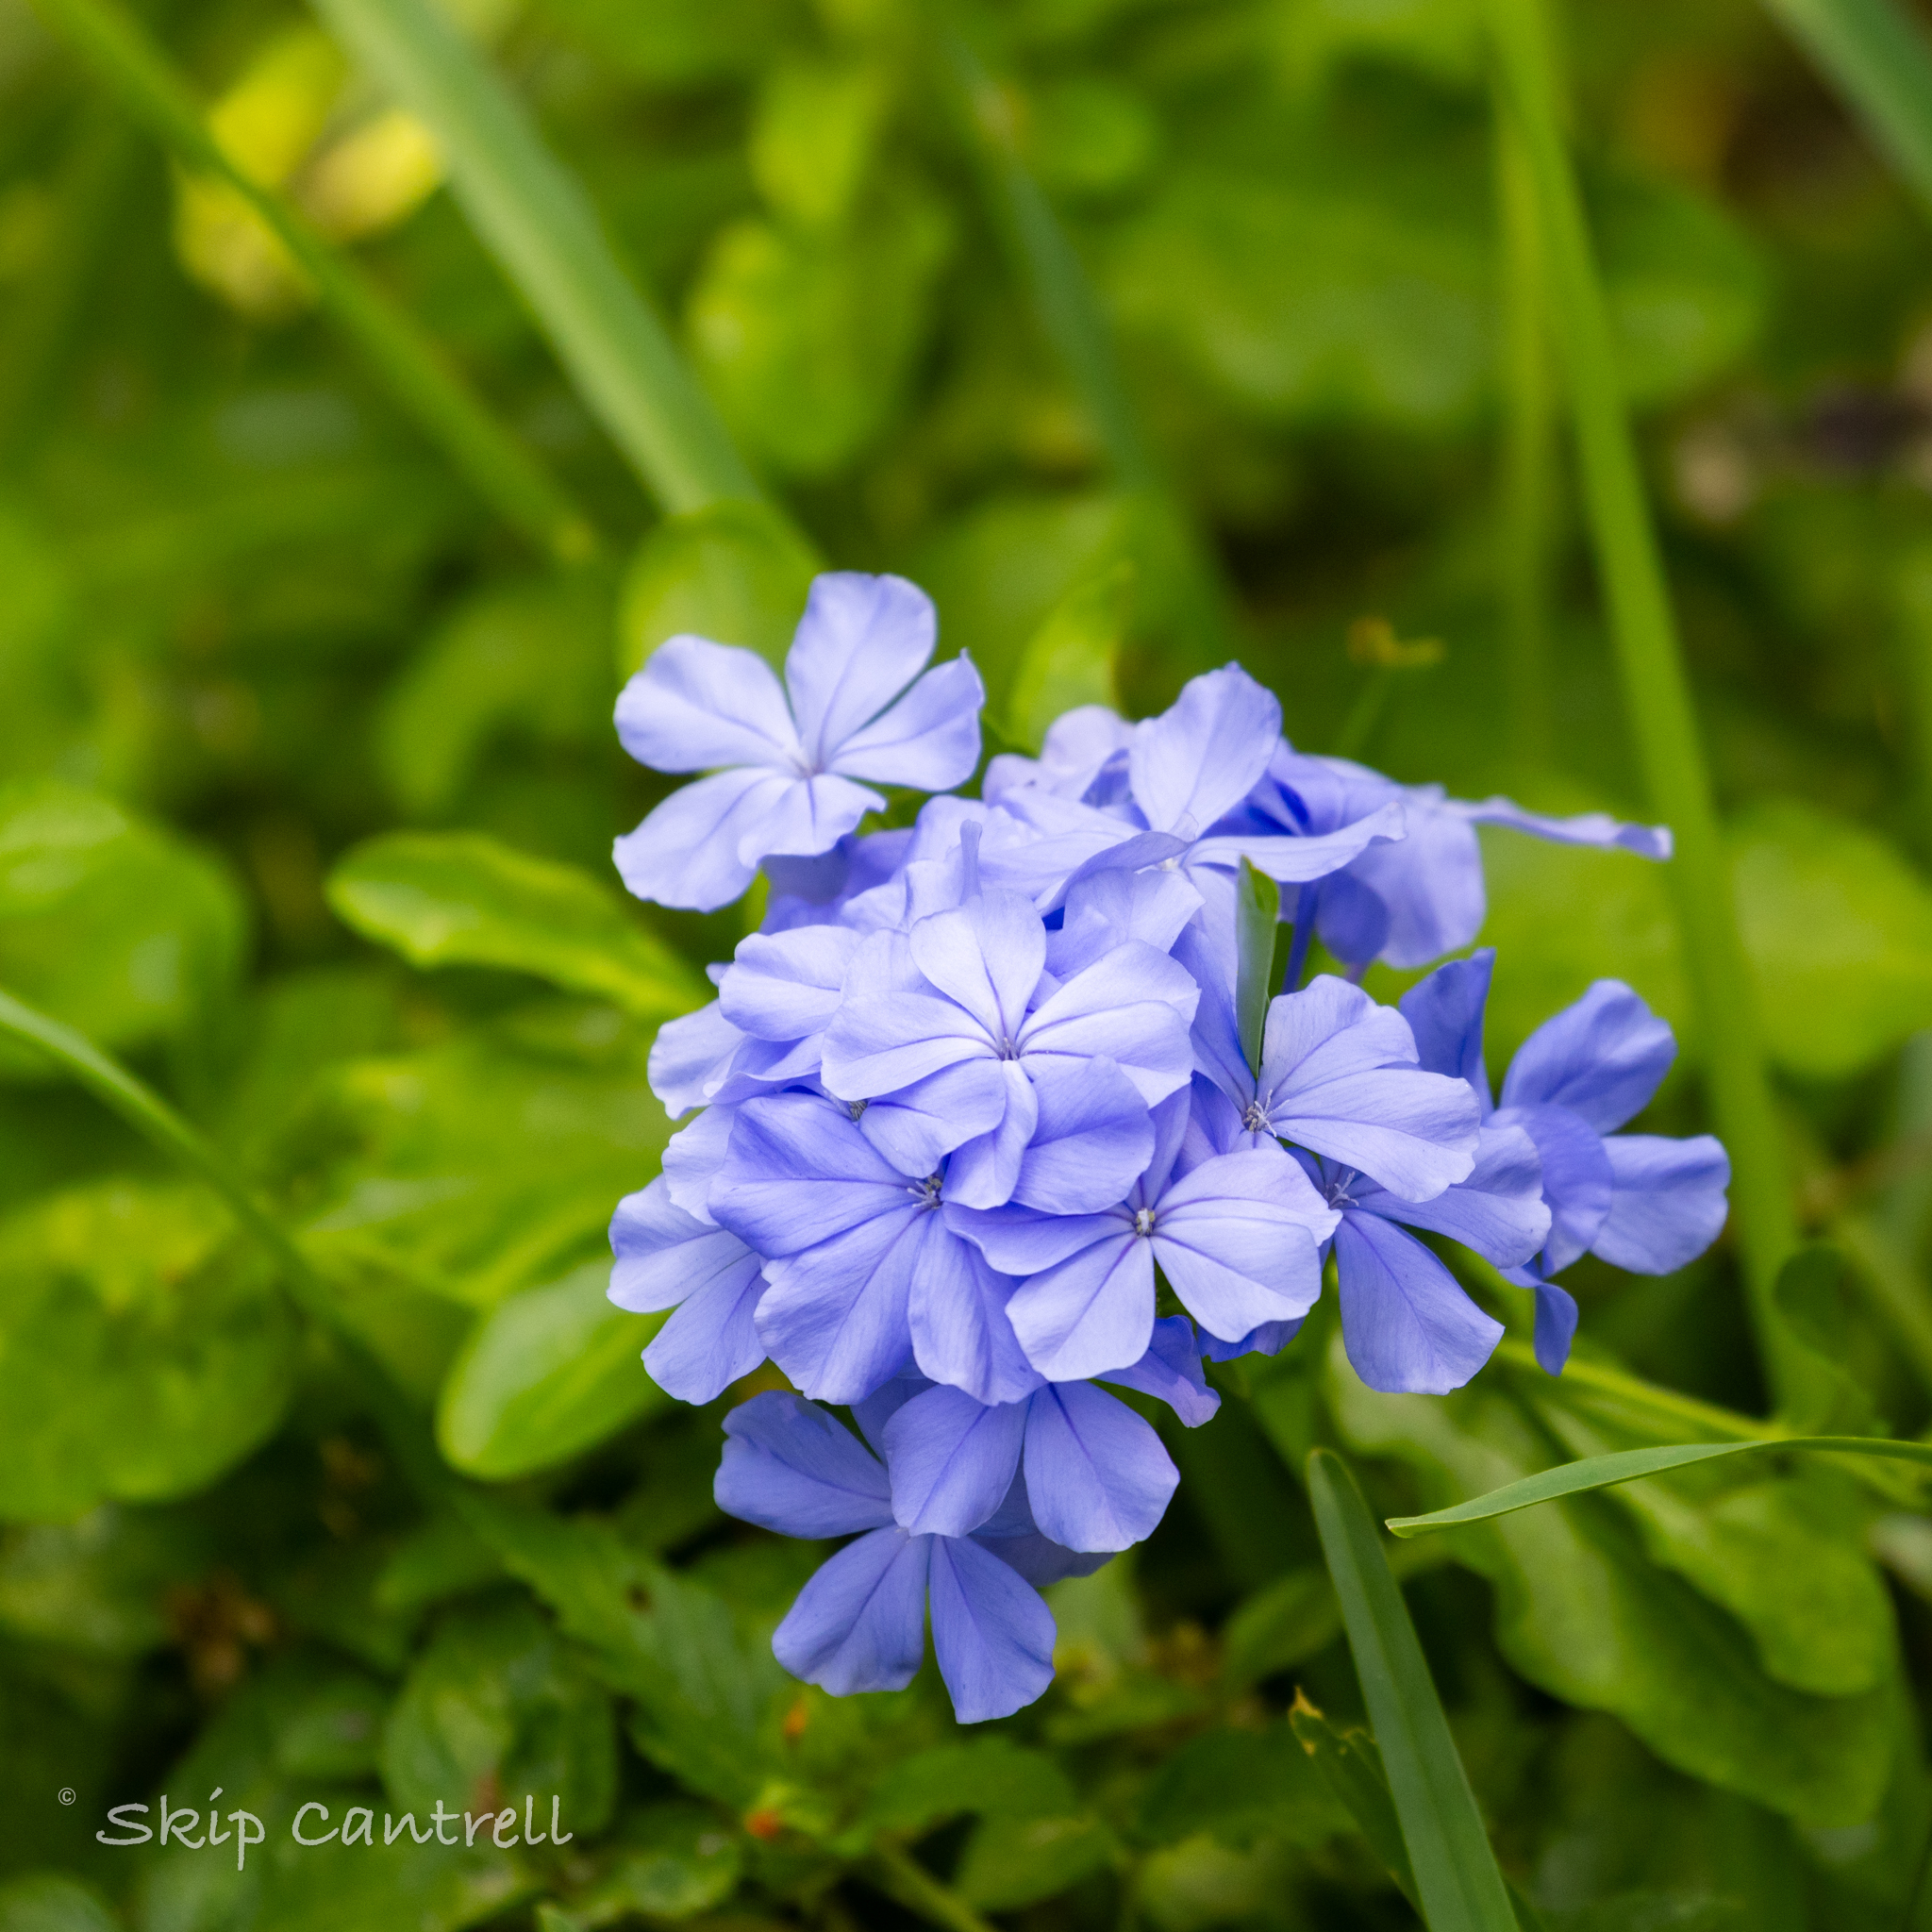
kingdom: Plantae
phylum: Tracheophyta
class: Magnoliopsida
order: Caryophyllales
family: Plumbaginaceae
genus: Plumbago
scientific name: Plumbago auriculata
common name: Cape leadwort
